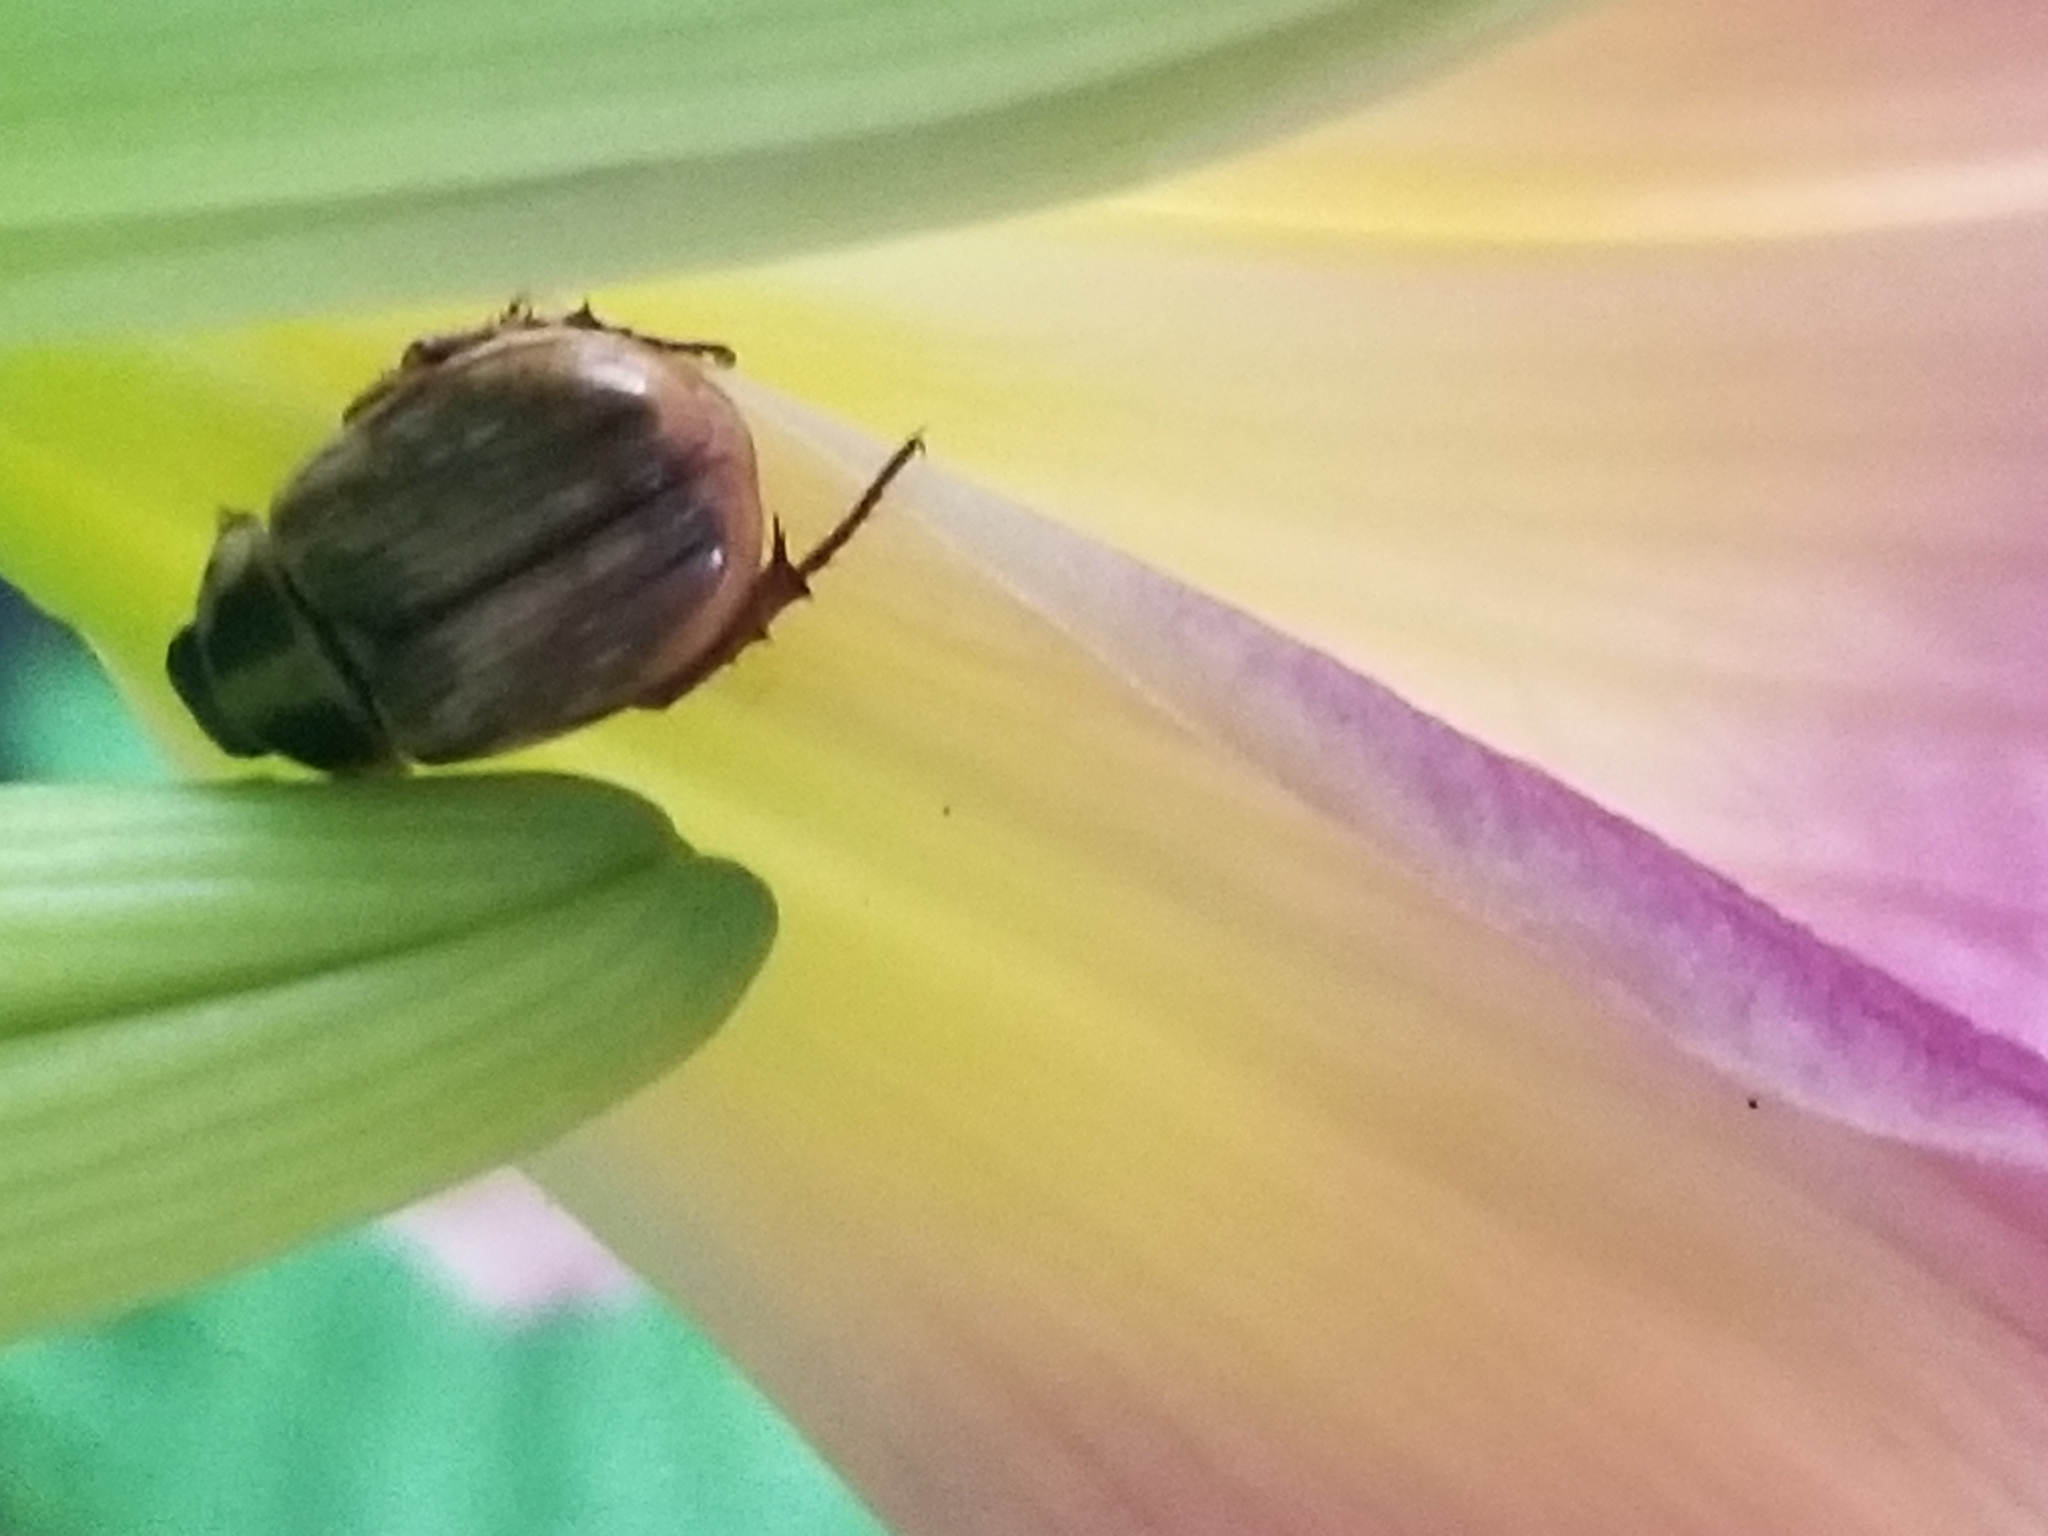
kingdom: Animalia
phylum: Arthropoda
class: Insecta
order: Coleoptera
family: Scarabaeidae
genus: Exomala
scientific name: Exomala orientalis
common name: Oriental beetle
